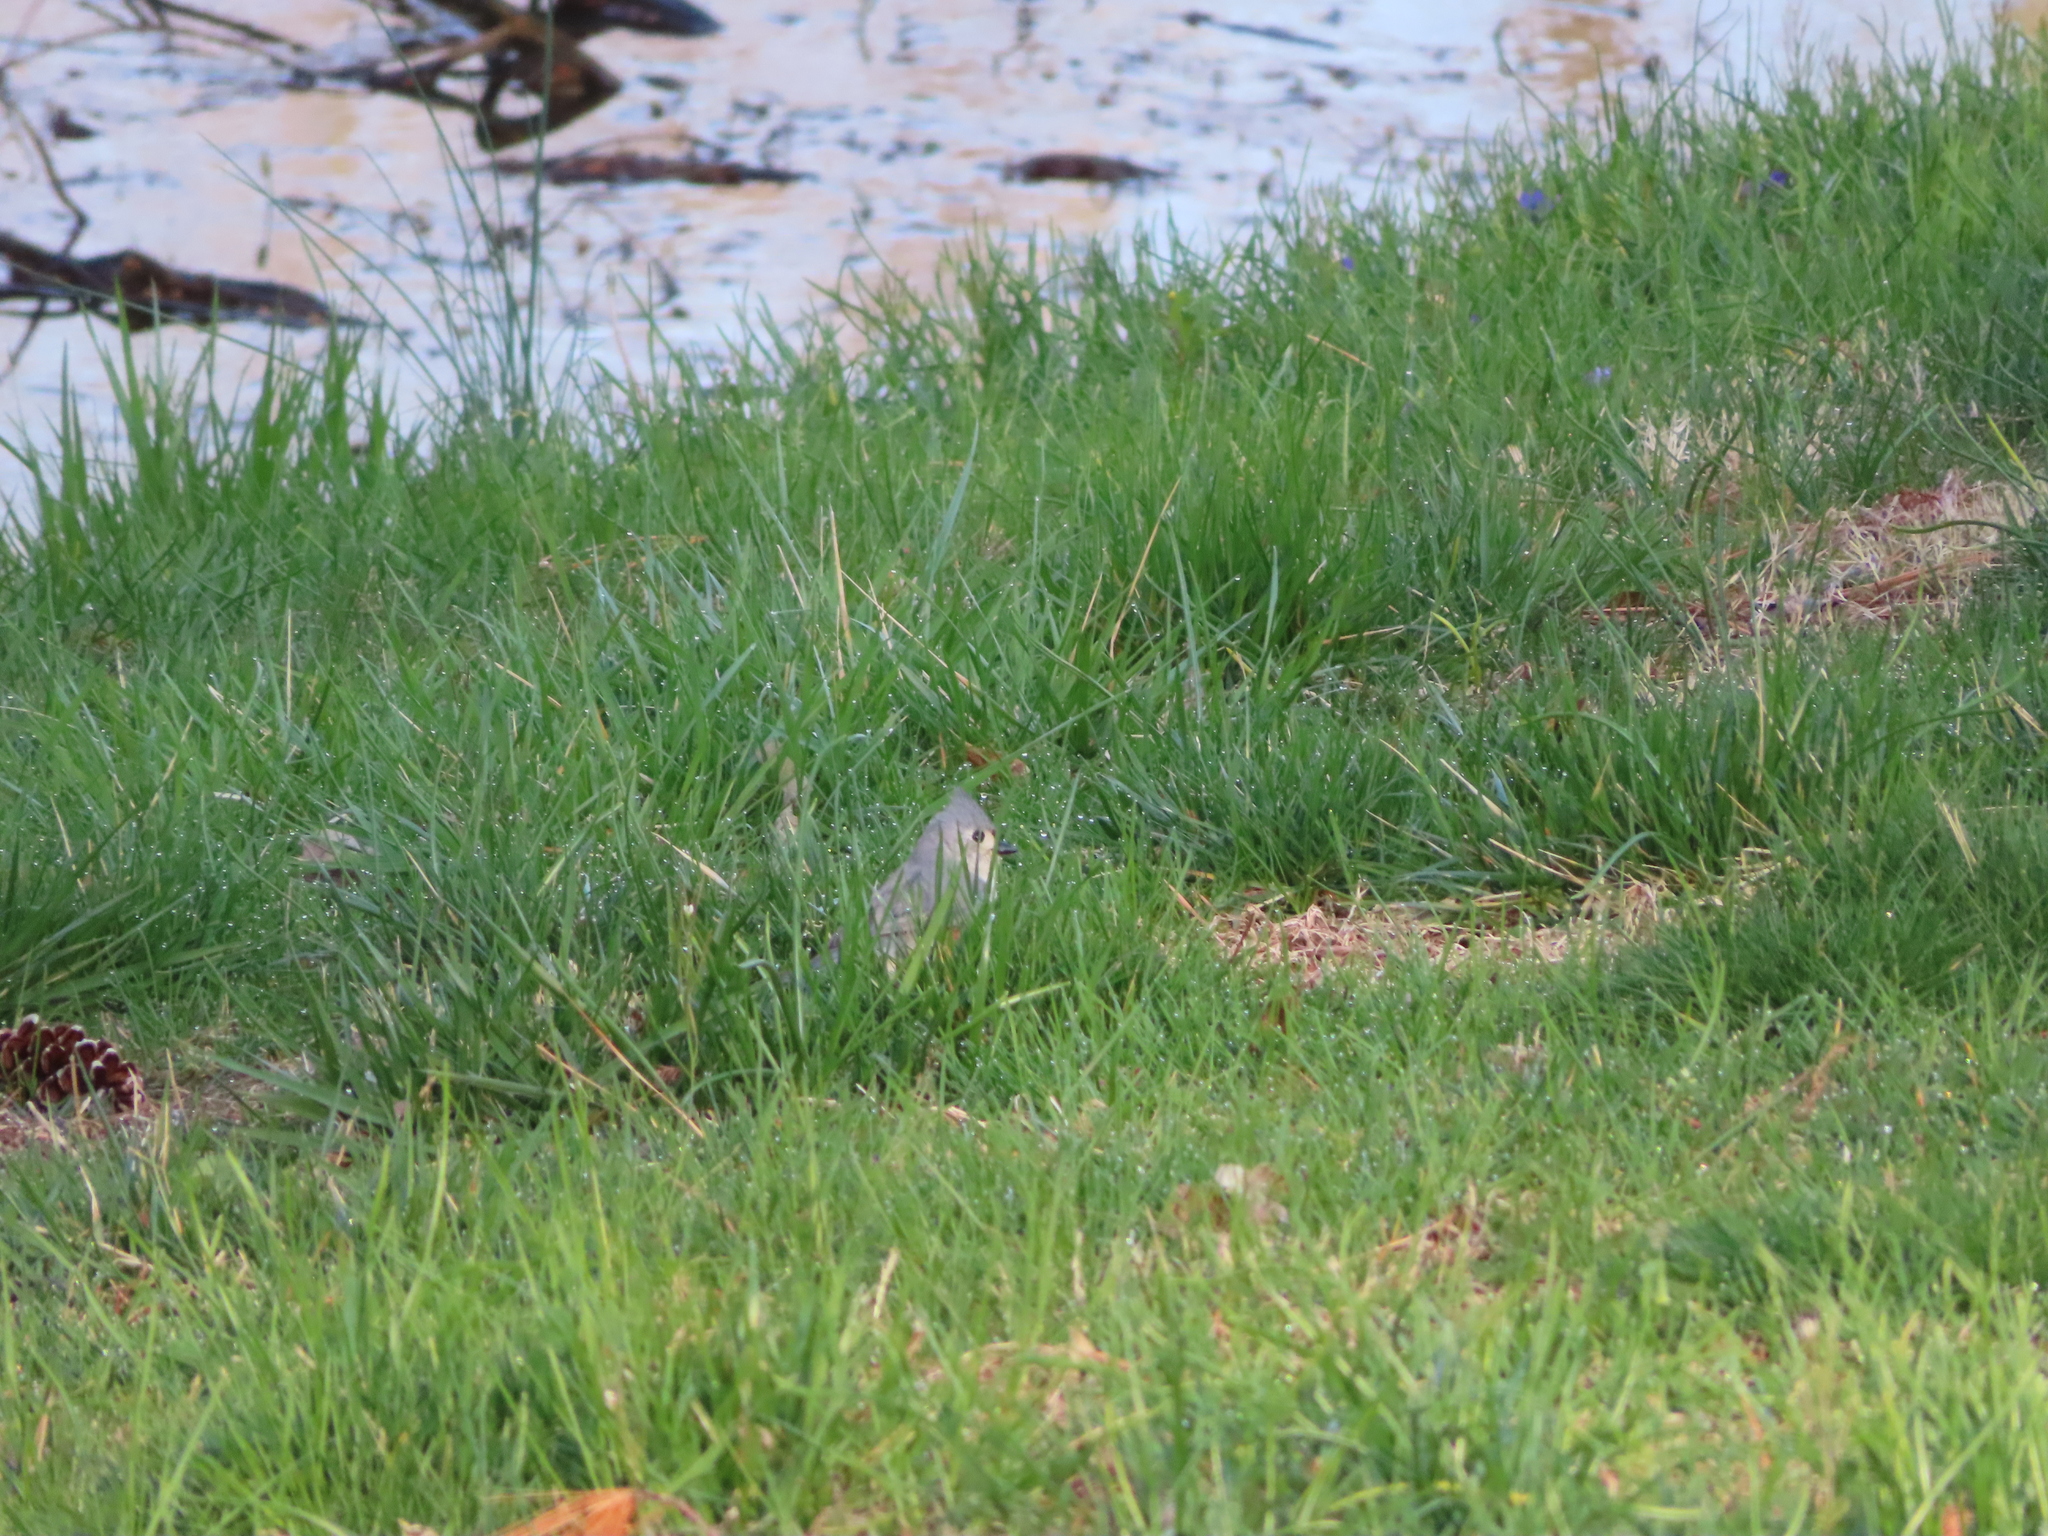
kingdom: Animalia
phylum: Chordata
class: Aves
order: Passeriformes
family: Paridae
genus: Baeolophus
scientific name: Baeolophus bicolor
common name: Tufted titmouse
